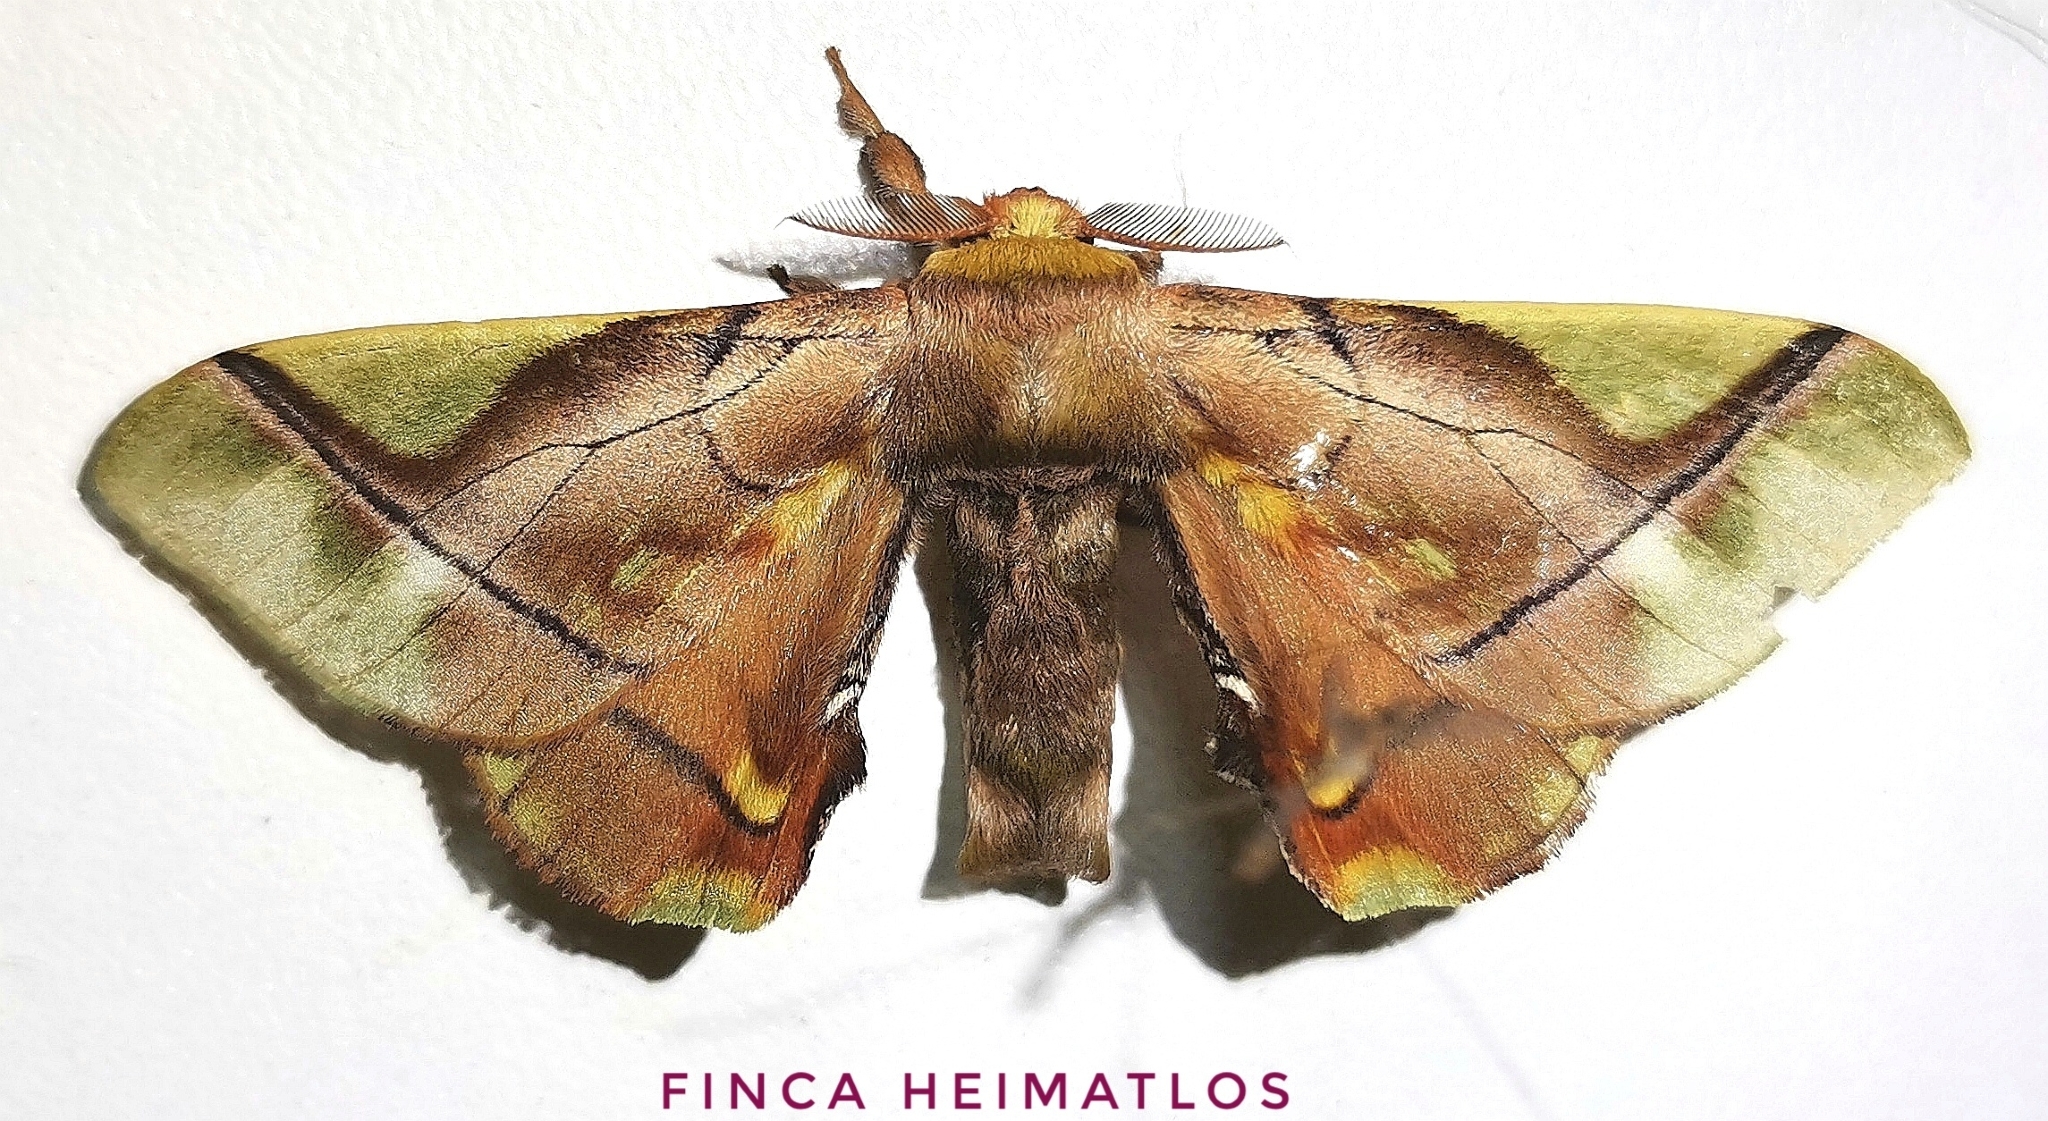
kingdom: Animalia
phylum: Arthropoda
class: Insecta
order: Lepidoptera
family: Bombycidae
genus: Epia
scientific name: Epia muscosa
